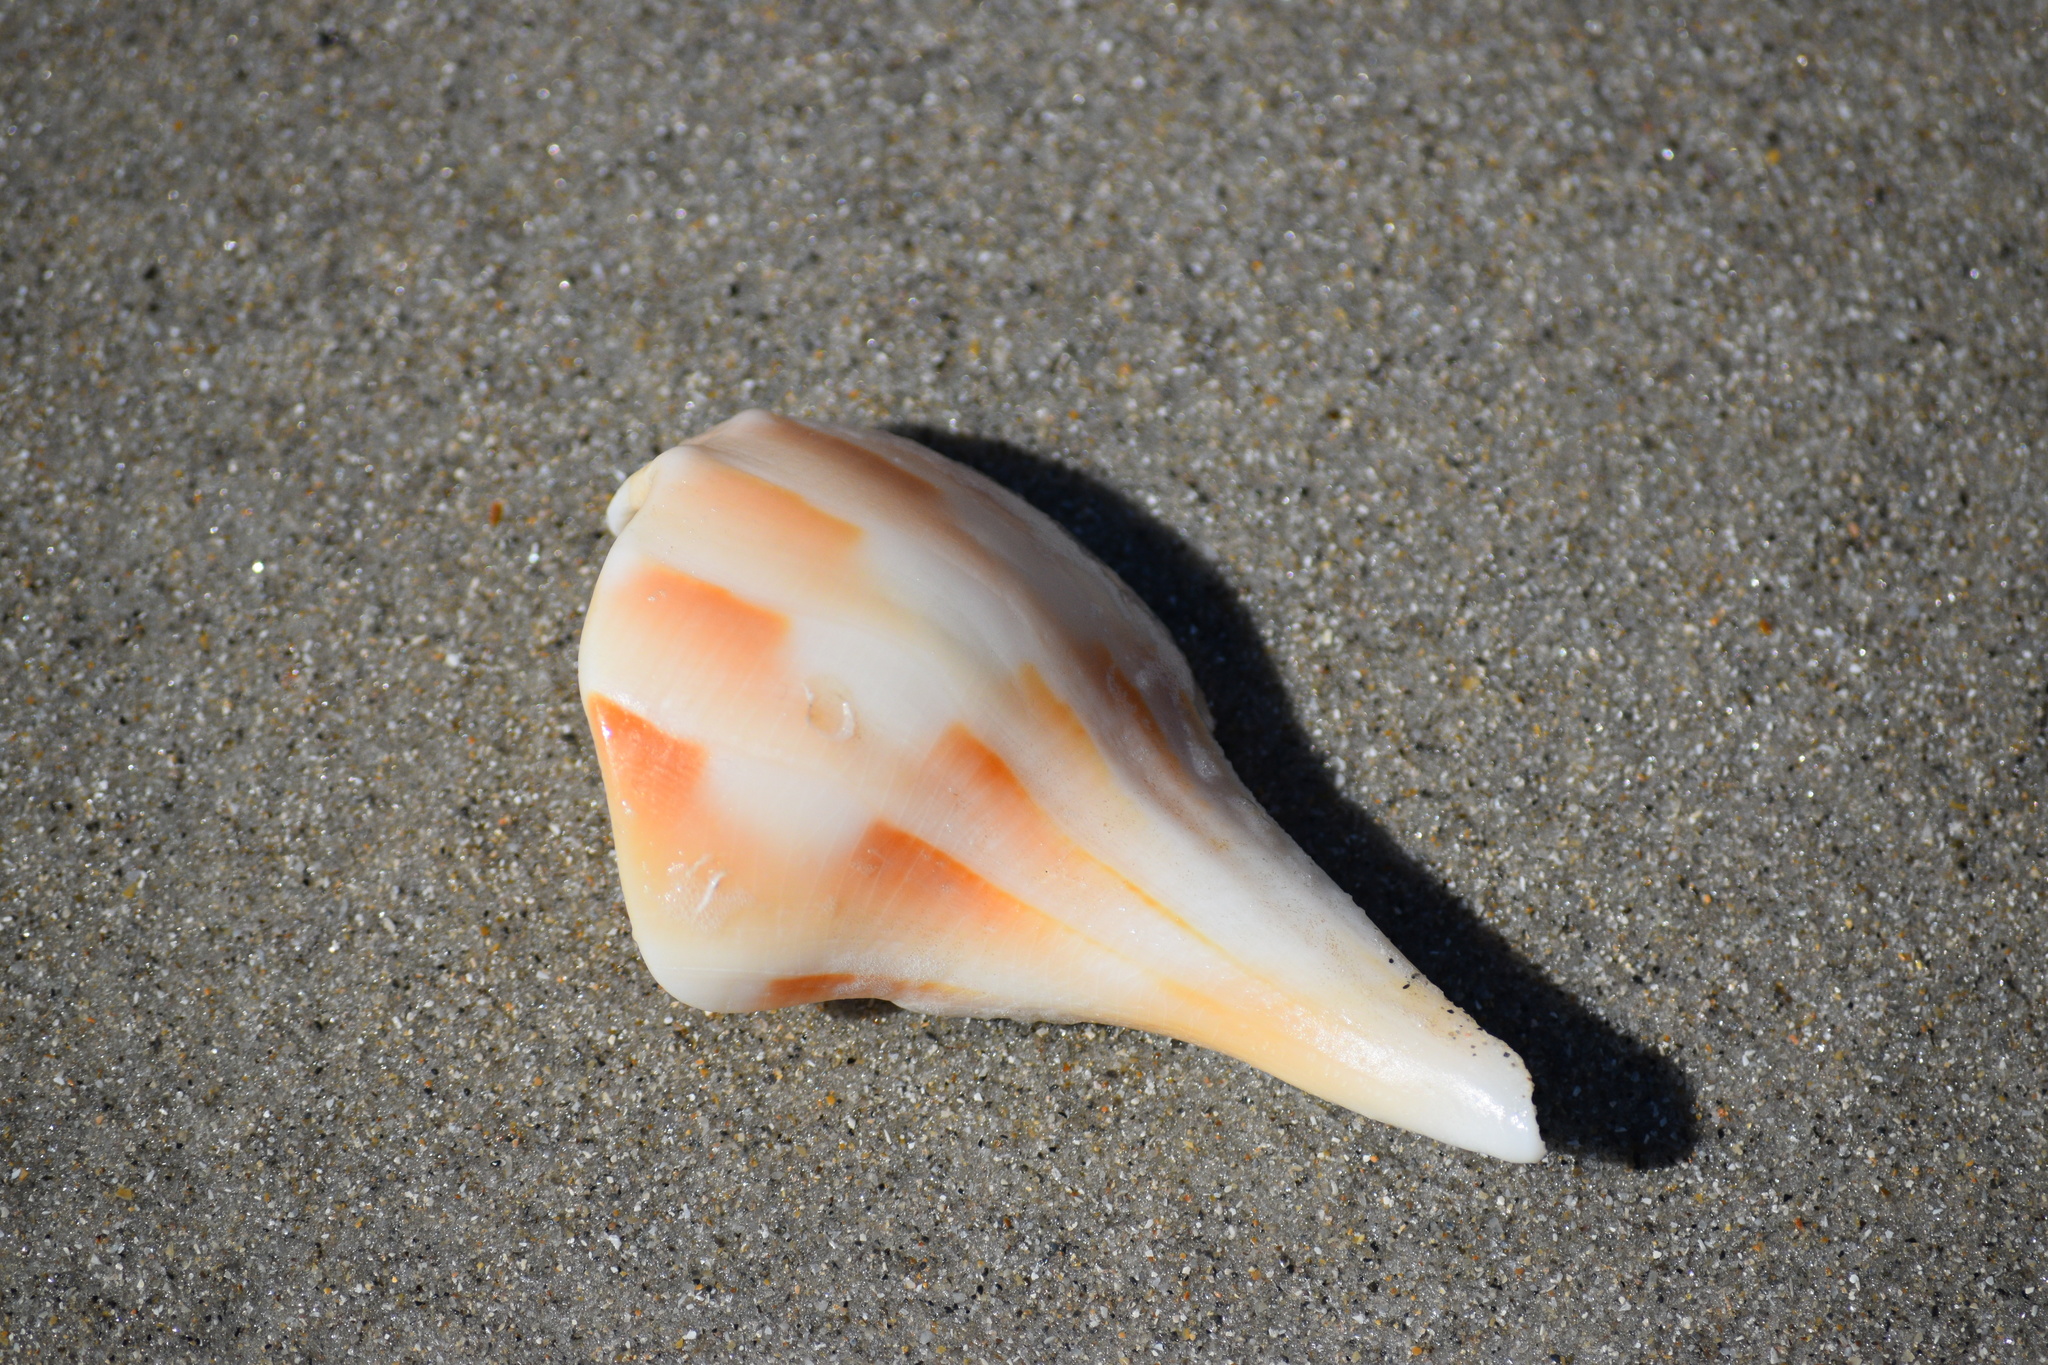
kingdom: Animalia
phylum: Mollusca
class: Gastropoda
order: Neogastropoda
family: Busyconidae
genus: Sinistrofulgur
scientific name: Sinistrofulgur sinistrum
